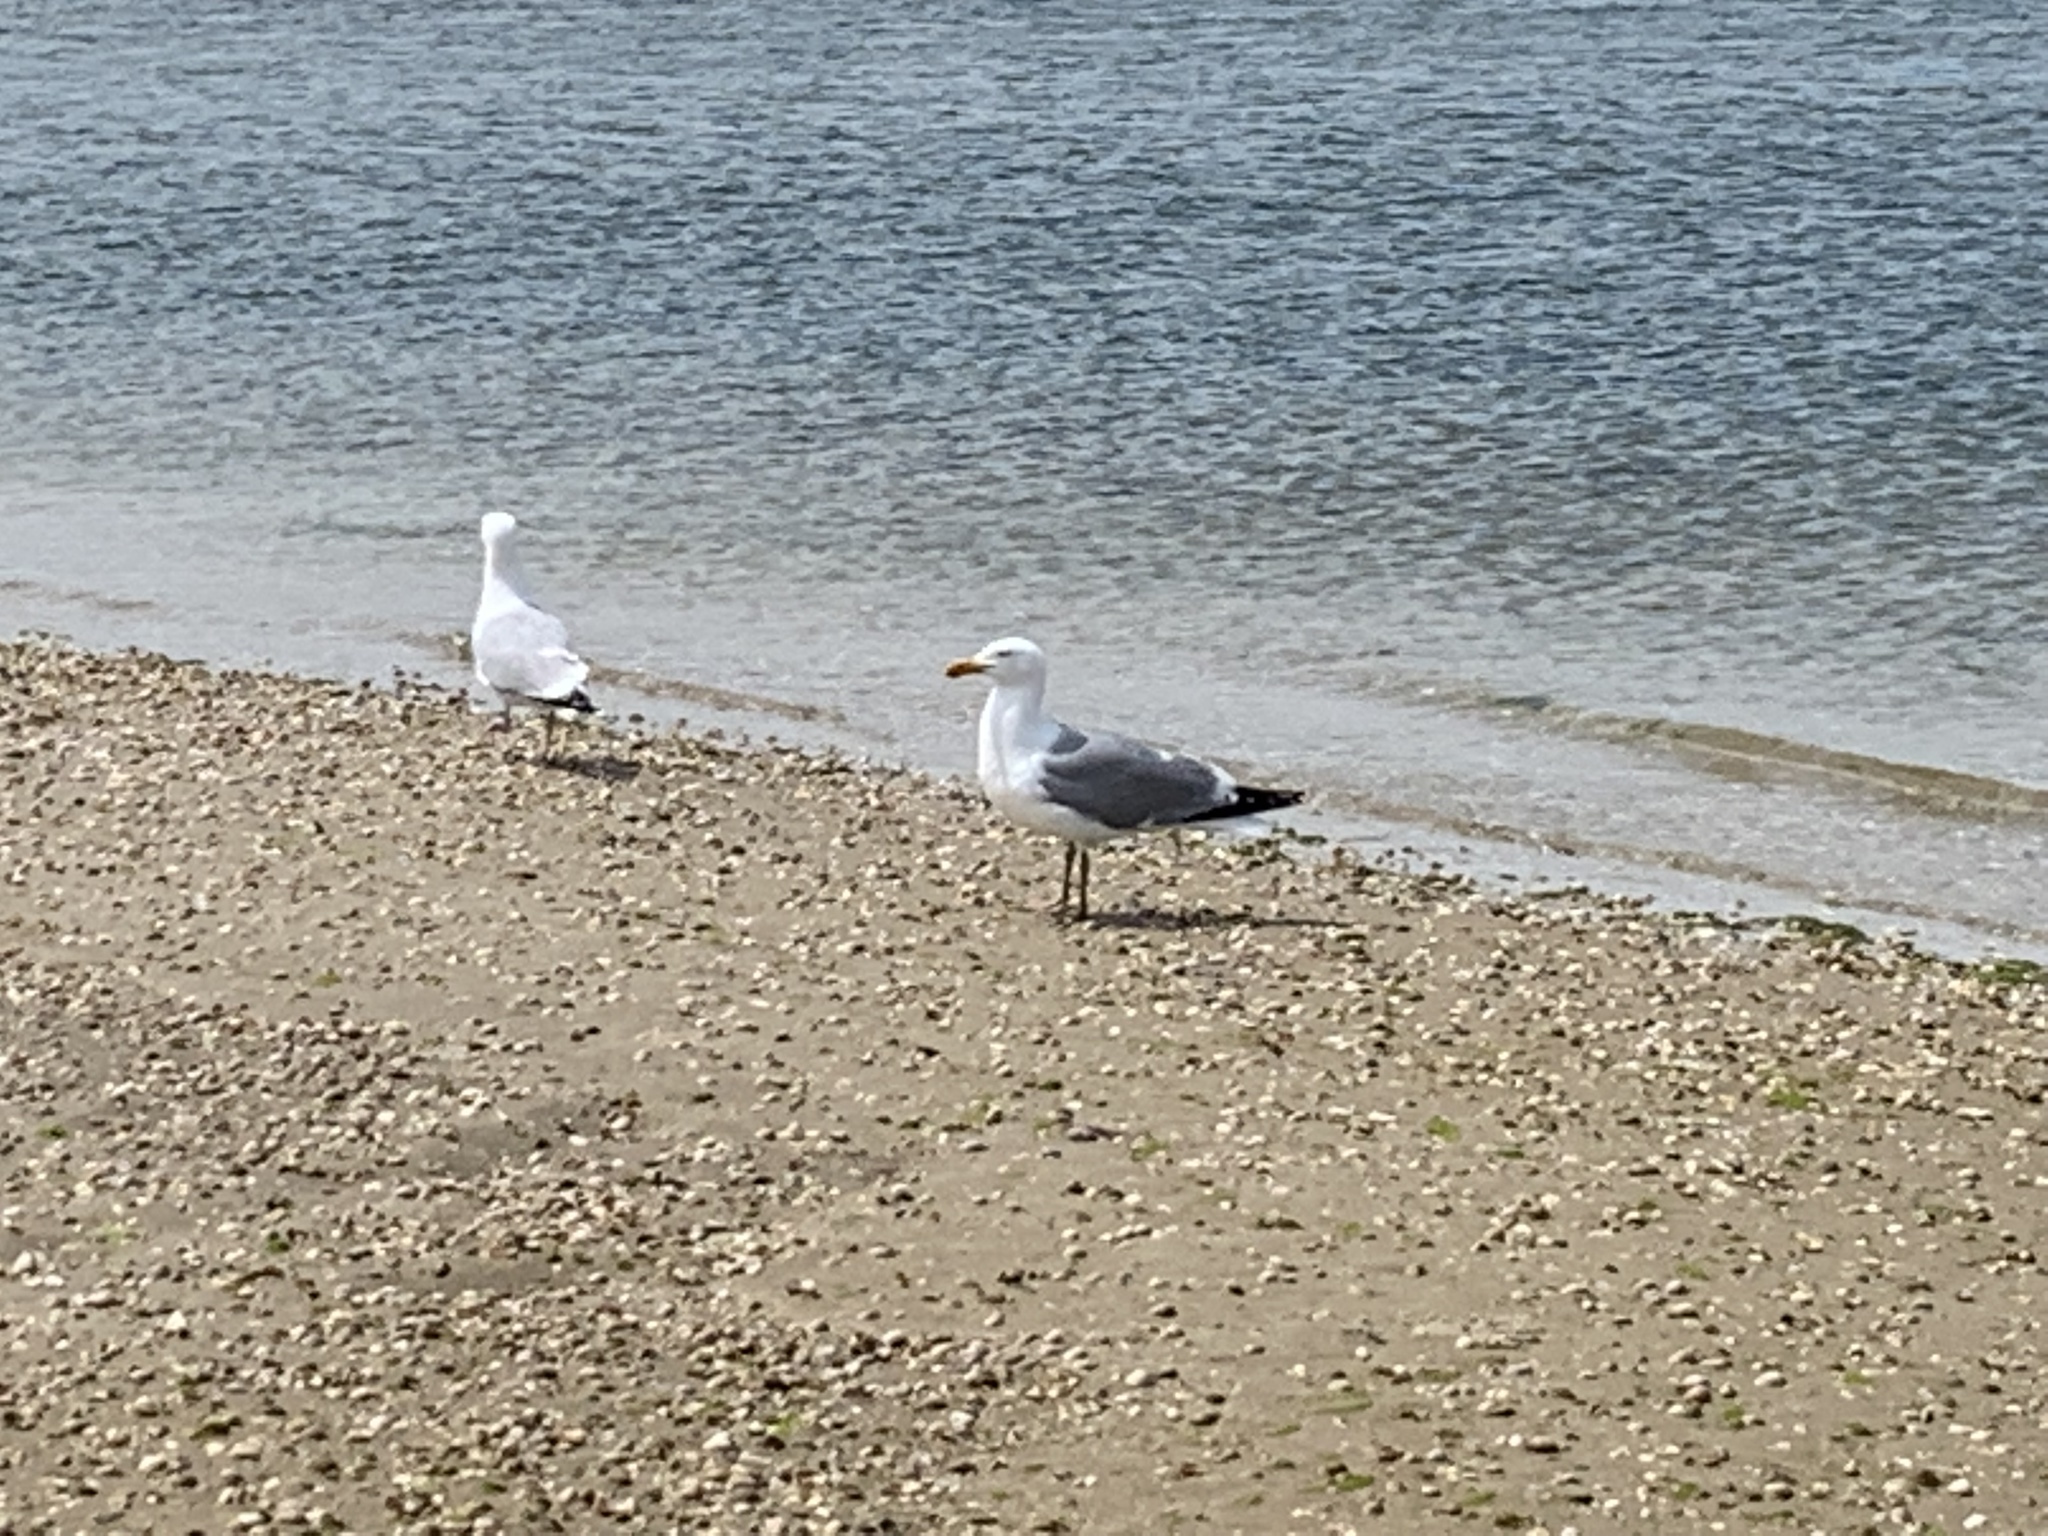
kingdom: Animalia
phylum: Chordata
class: Aves
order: Charadriiformes
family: Laridae
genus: Larus
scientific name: Larus argentatus
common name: Herring gull
